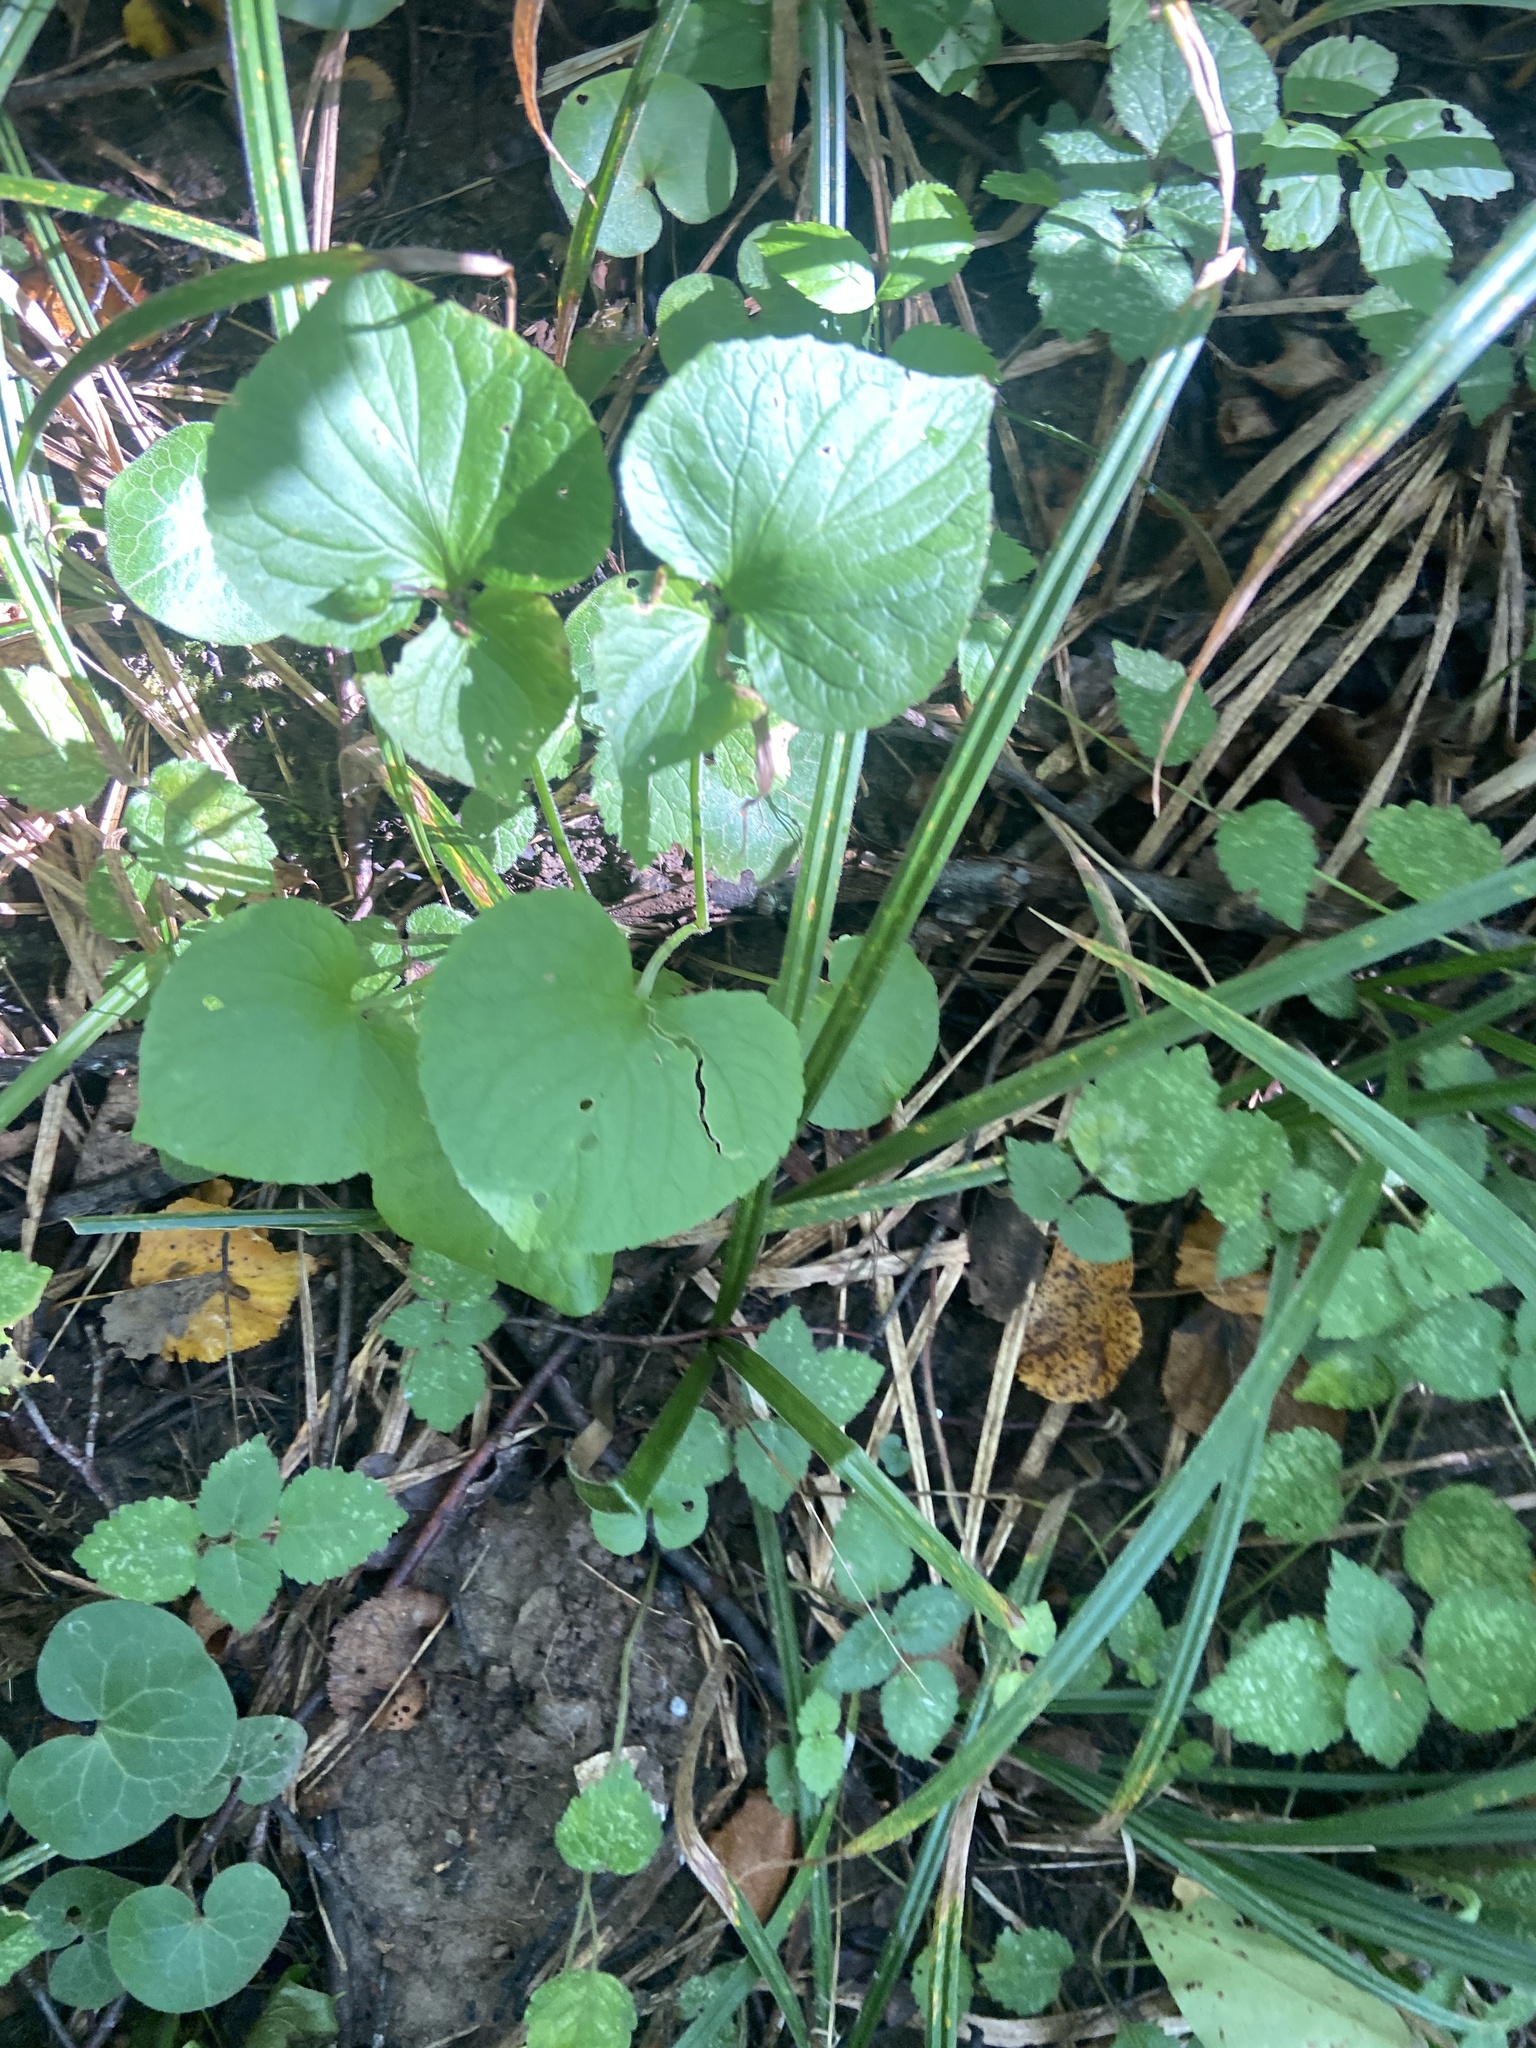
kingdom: Plantae
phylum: Tracheophyta
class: Magnoliopsida
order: Malpighiales
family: Violaceae
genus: Viola
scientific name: Viola mirabilis
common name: Wonder violet
